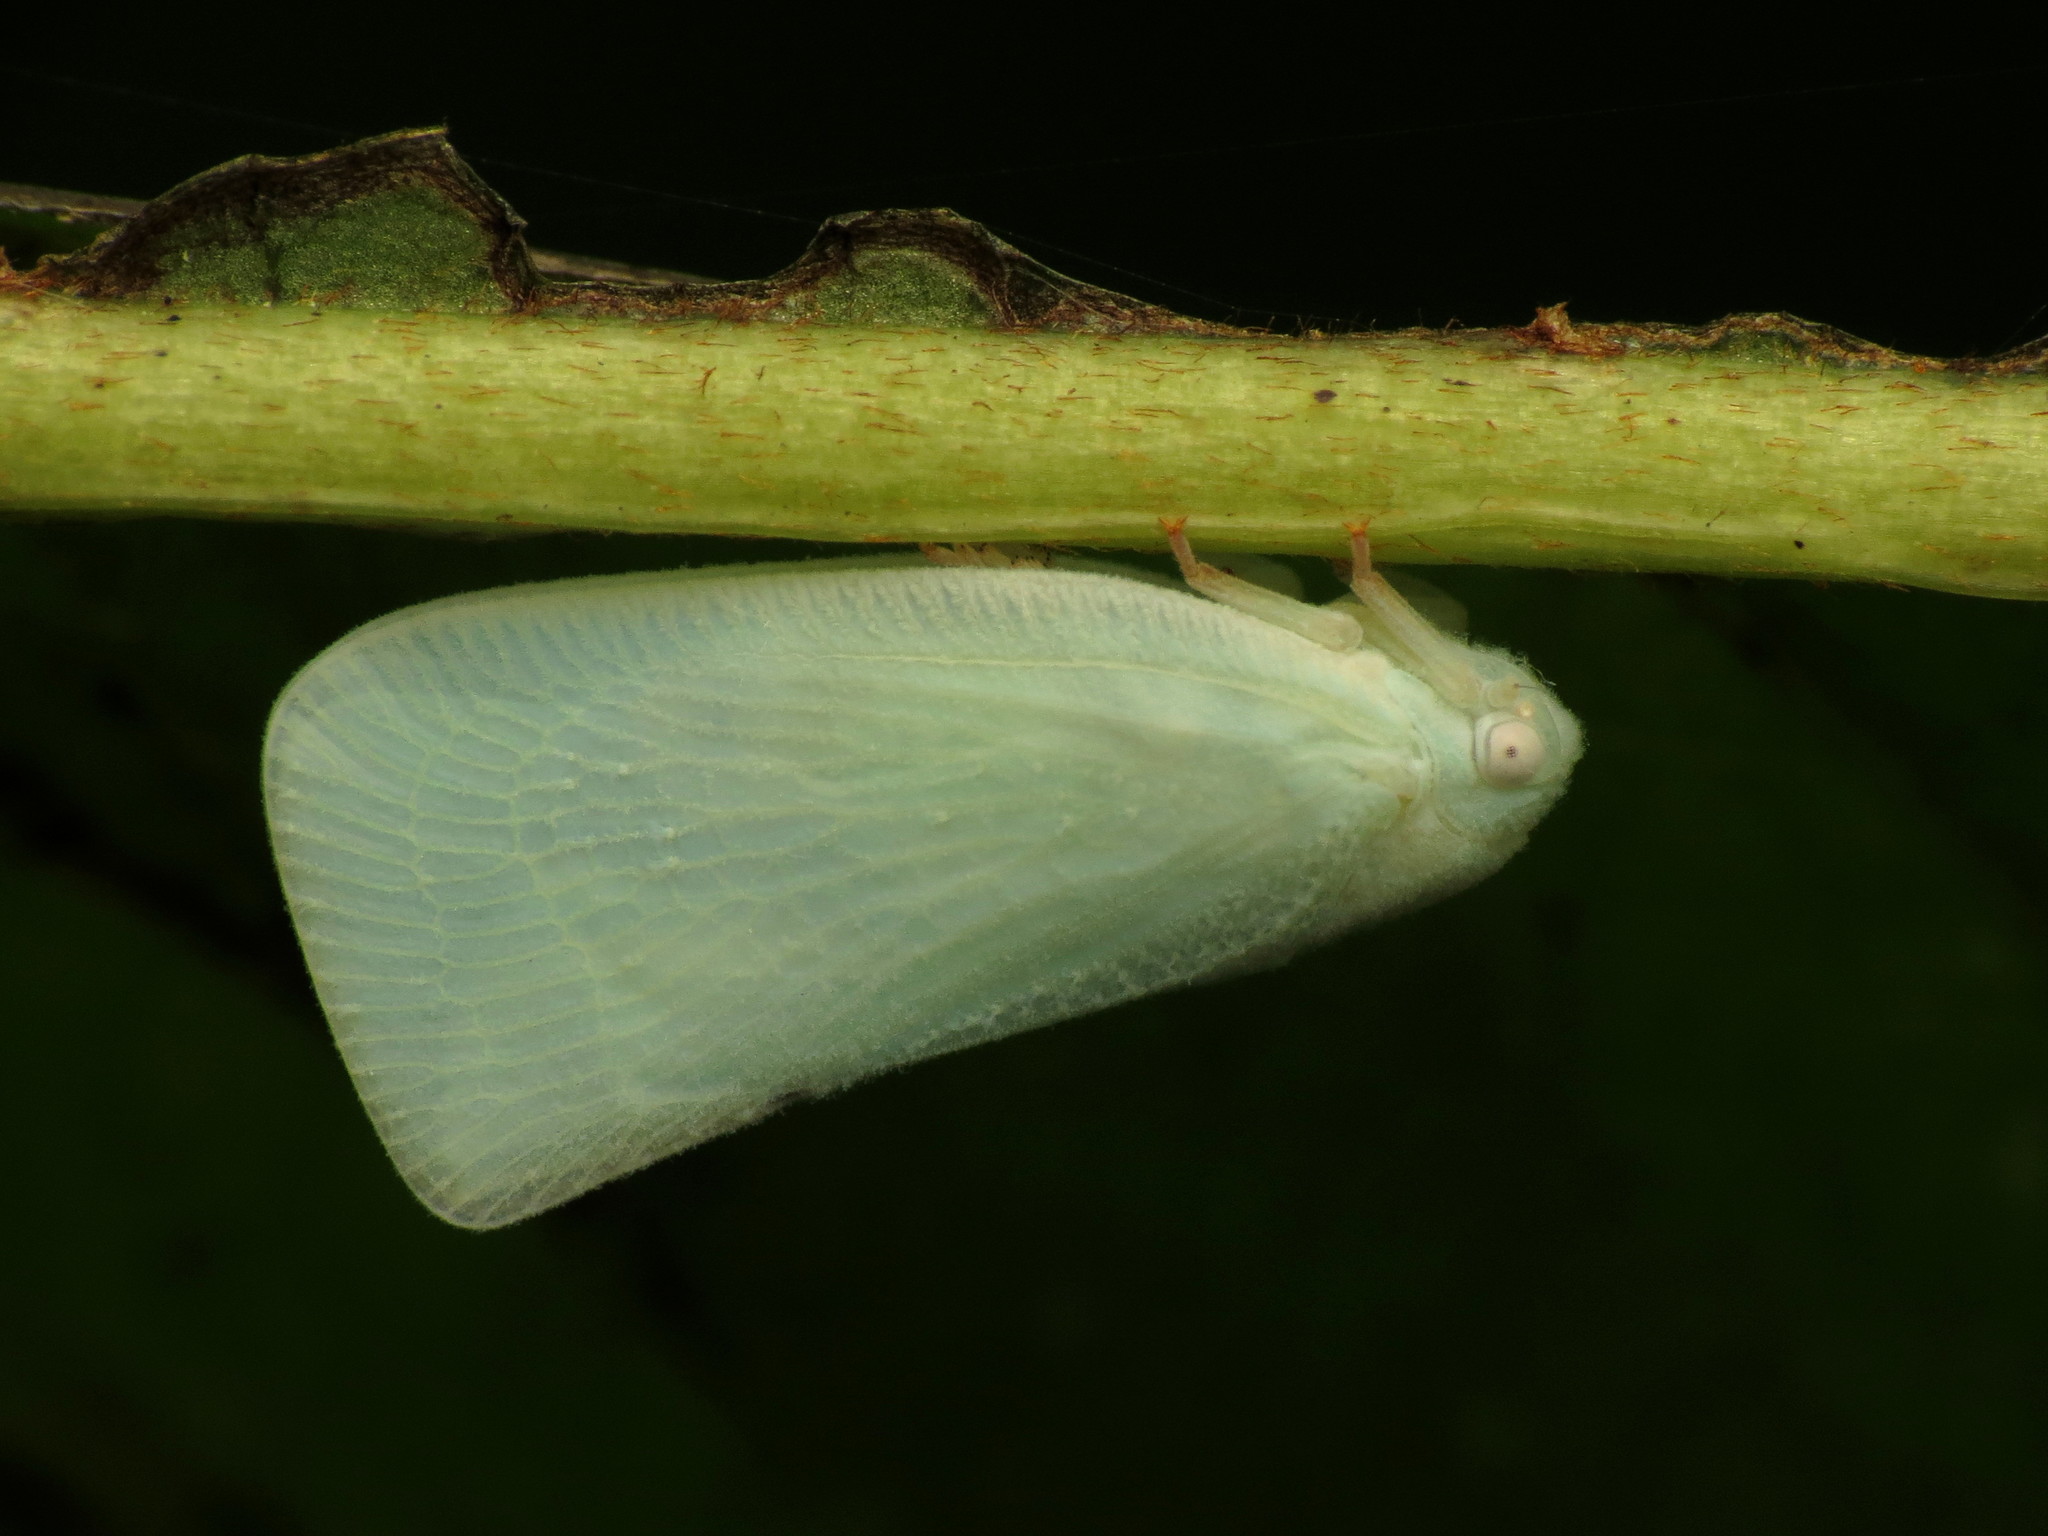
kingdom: Animalia
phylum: Arthropoda
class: Insecta
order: Hemiptera
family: Flatidae
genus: Flatormenis
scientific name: Flatormenis proxima
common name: Northern flatid planthopper
